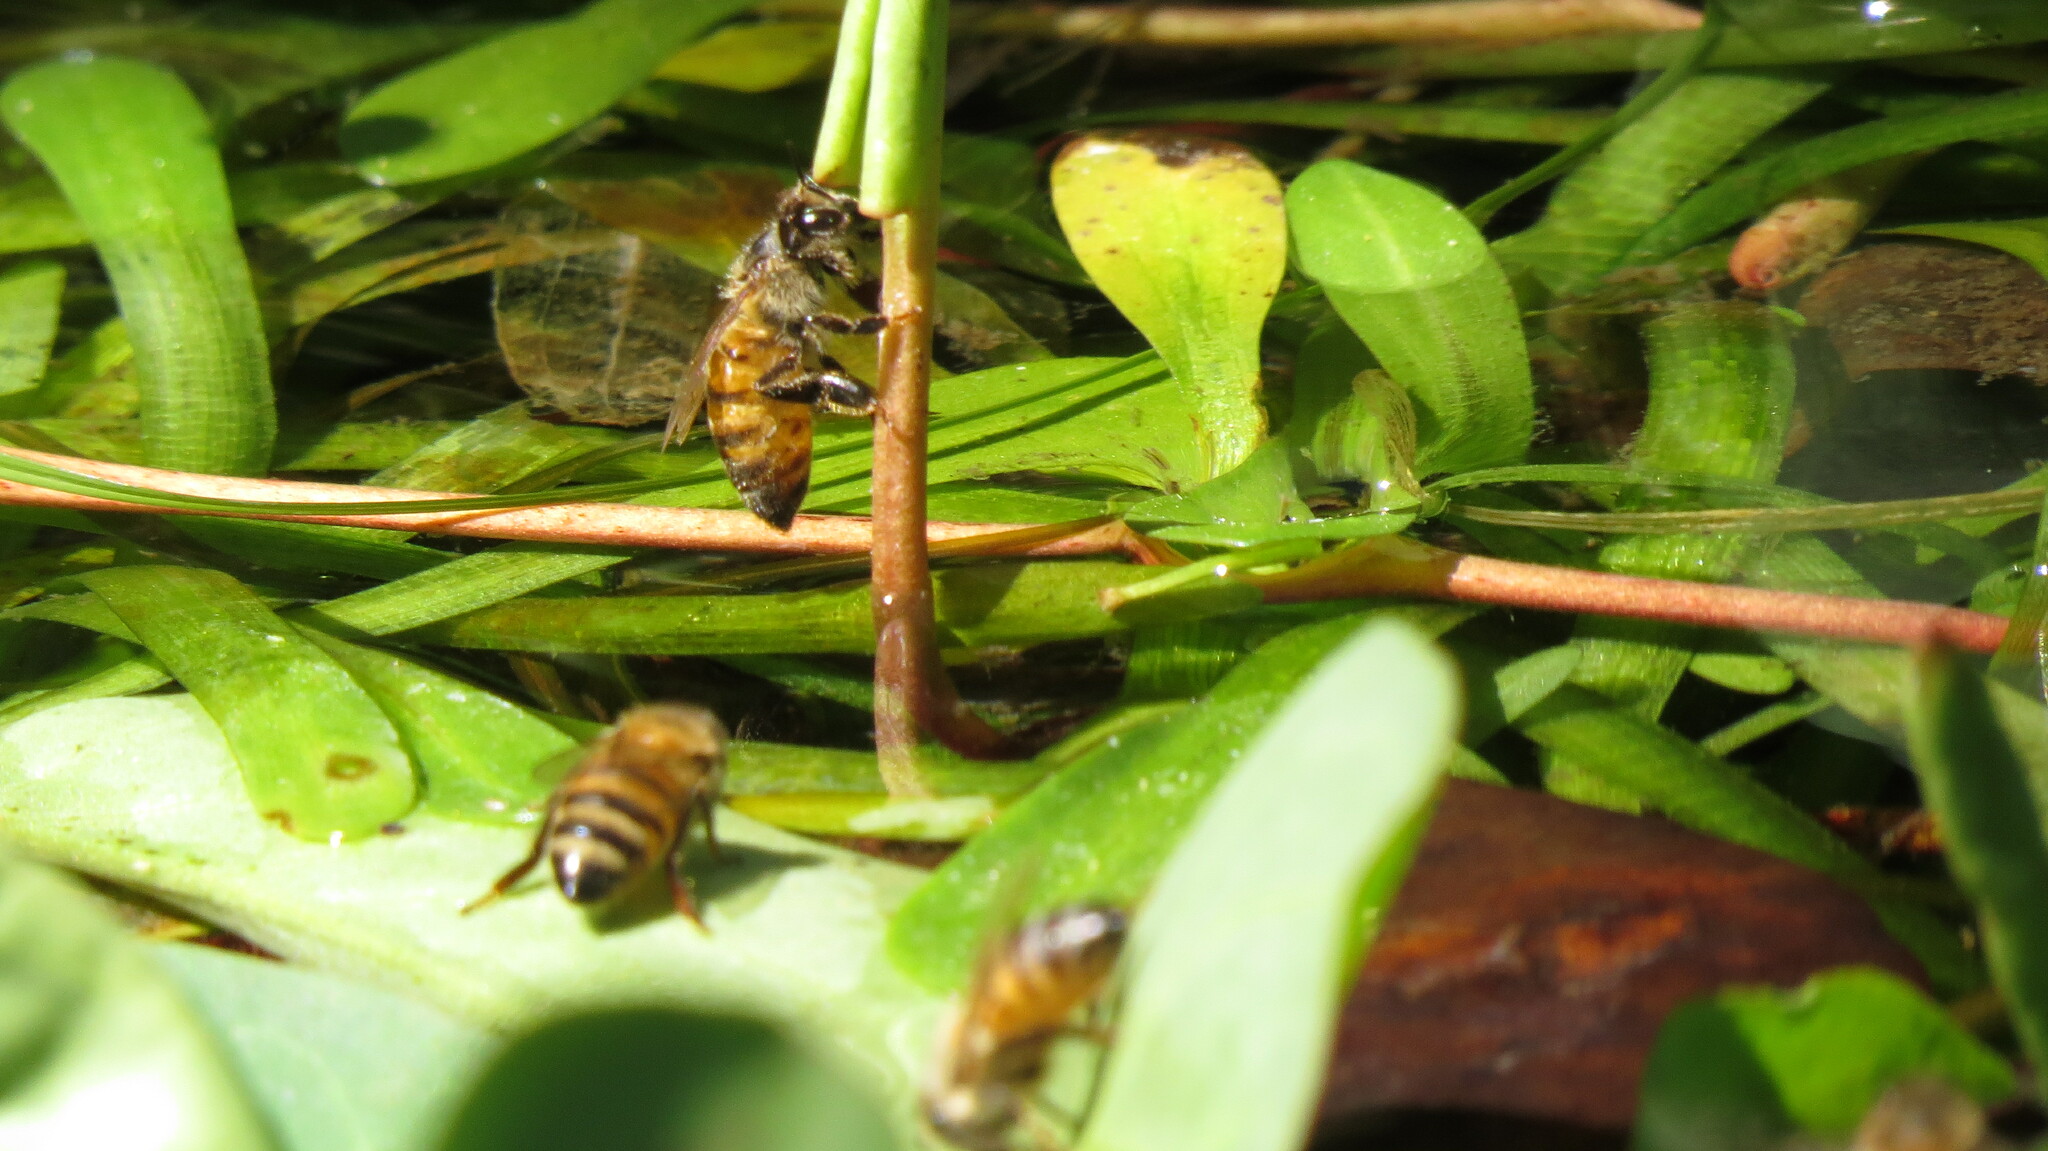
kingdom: Animalia
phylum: Arthropoda
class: Insecta
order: Hymenoptera
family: Apidae
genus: Apis
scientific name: Apis mellifera
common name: Honey bee
